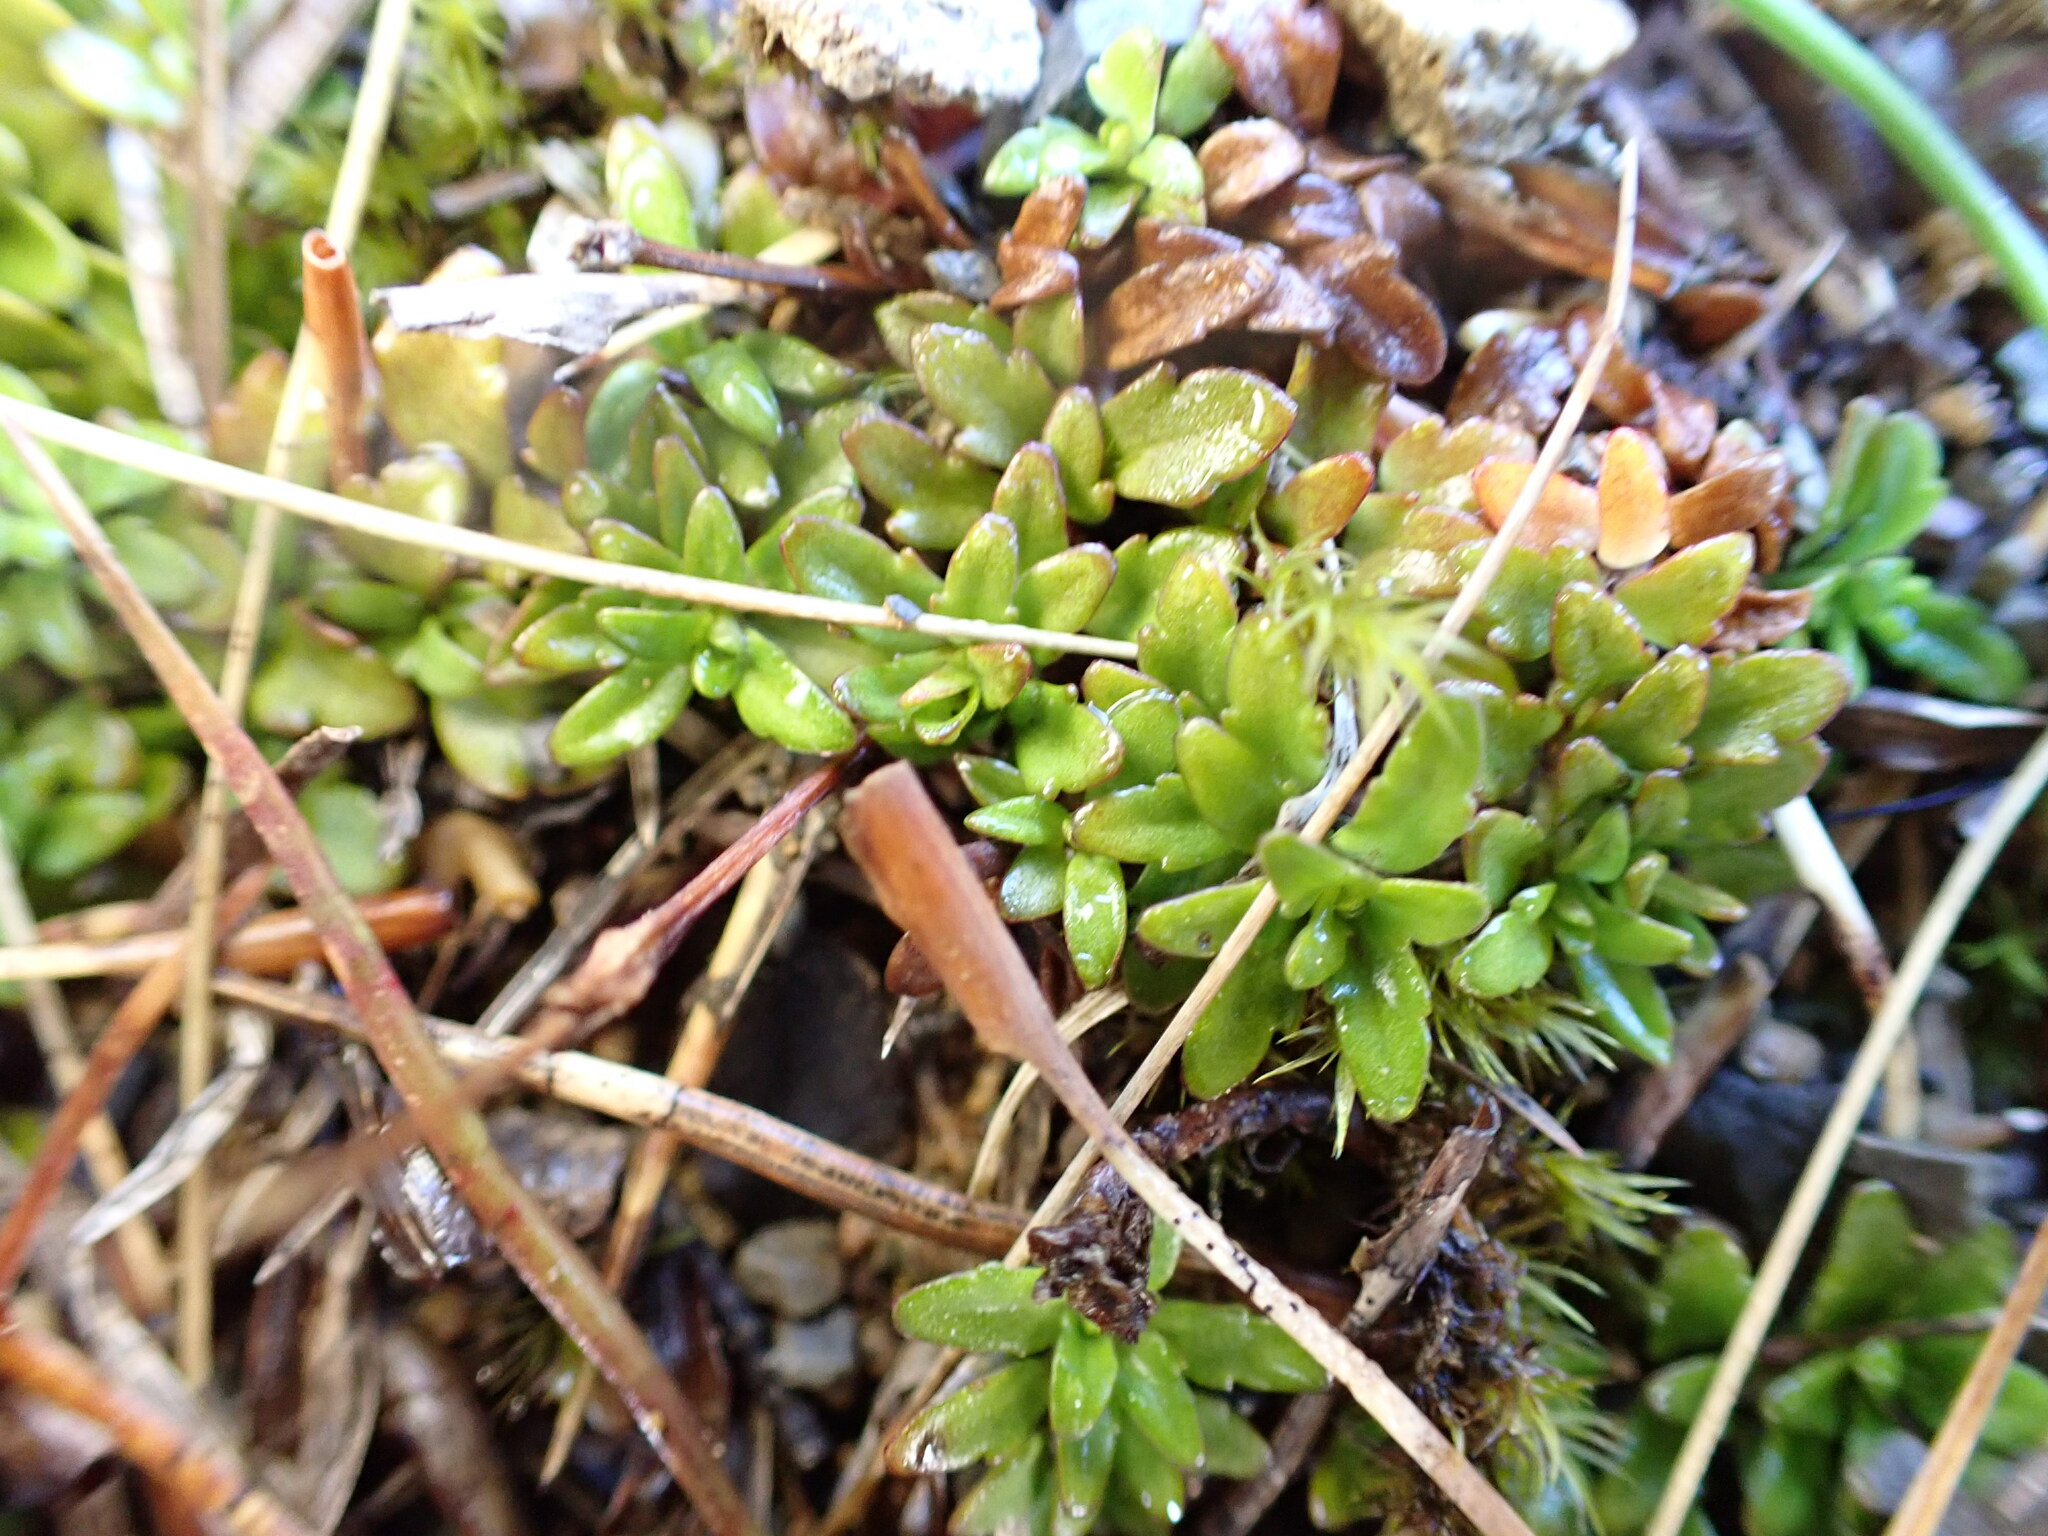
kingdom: Plantae
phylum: Tracheophyta
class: Magnoliopsida
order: Lamiales
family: Plantaginaceae
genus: Ourisia
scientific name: Ourisia caespitosa
